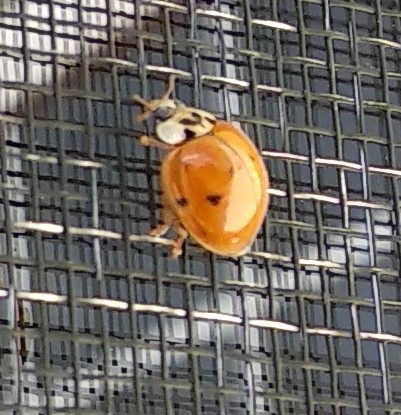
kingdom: Animalia
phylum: Arthropoda
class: Insecta
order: Coleoptera
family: Coccinellidae
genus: Harmonia
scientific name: Harmonia axyridis
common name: Harlequin ladybird
